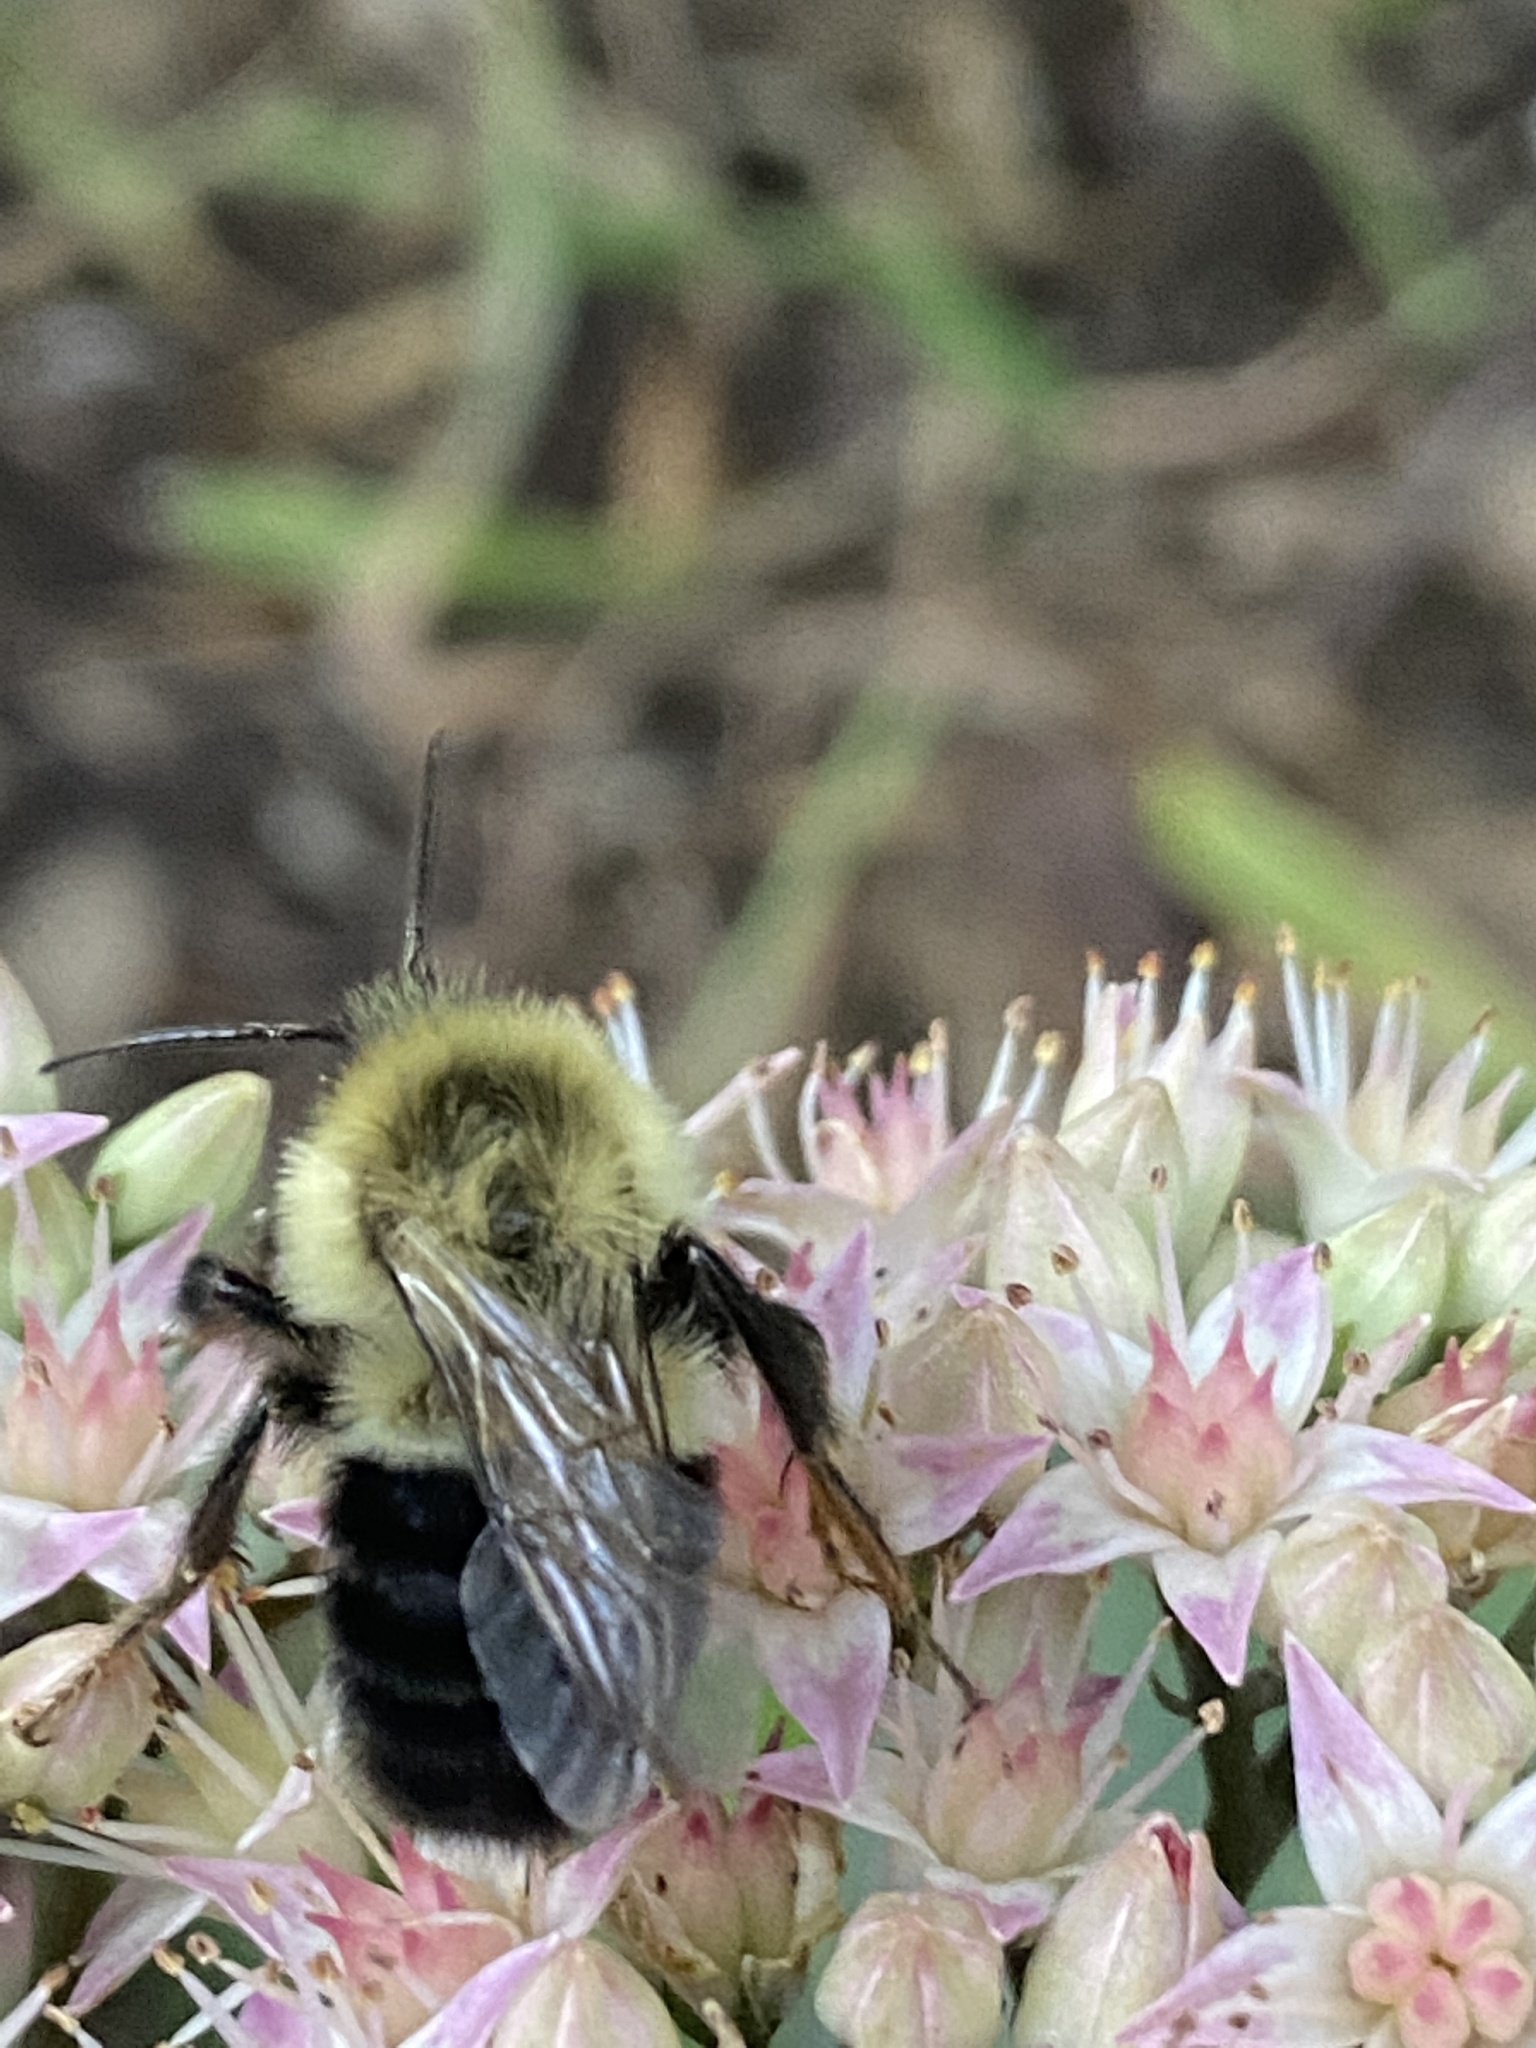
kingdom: Animalia
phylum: Arthropoda
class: Insecta
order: Hymenoptera
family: Apidae
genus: Bombus
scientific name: Bombus impatiens
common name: Common eastern bumble bee
